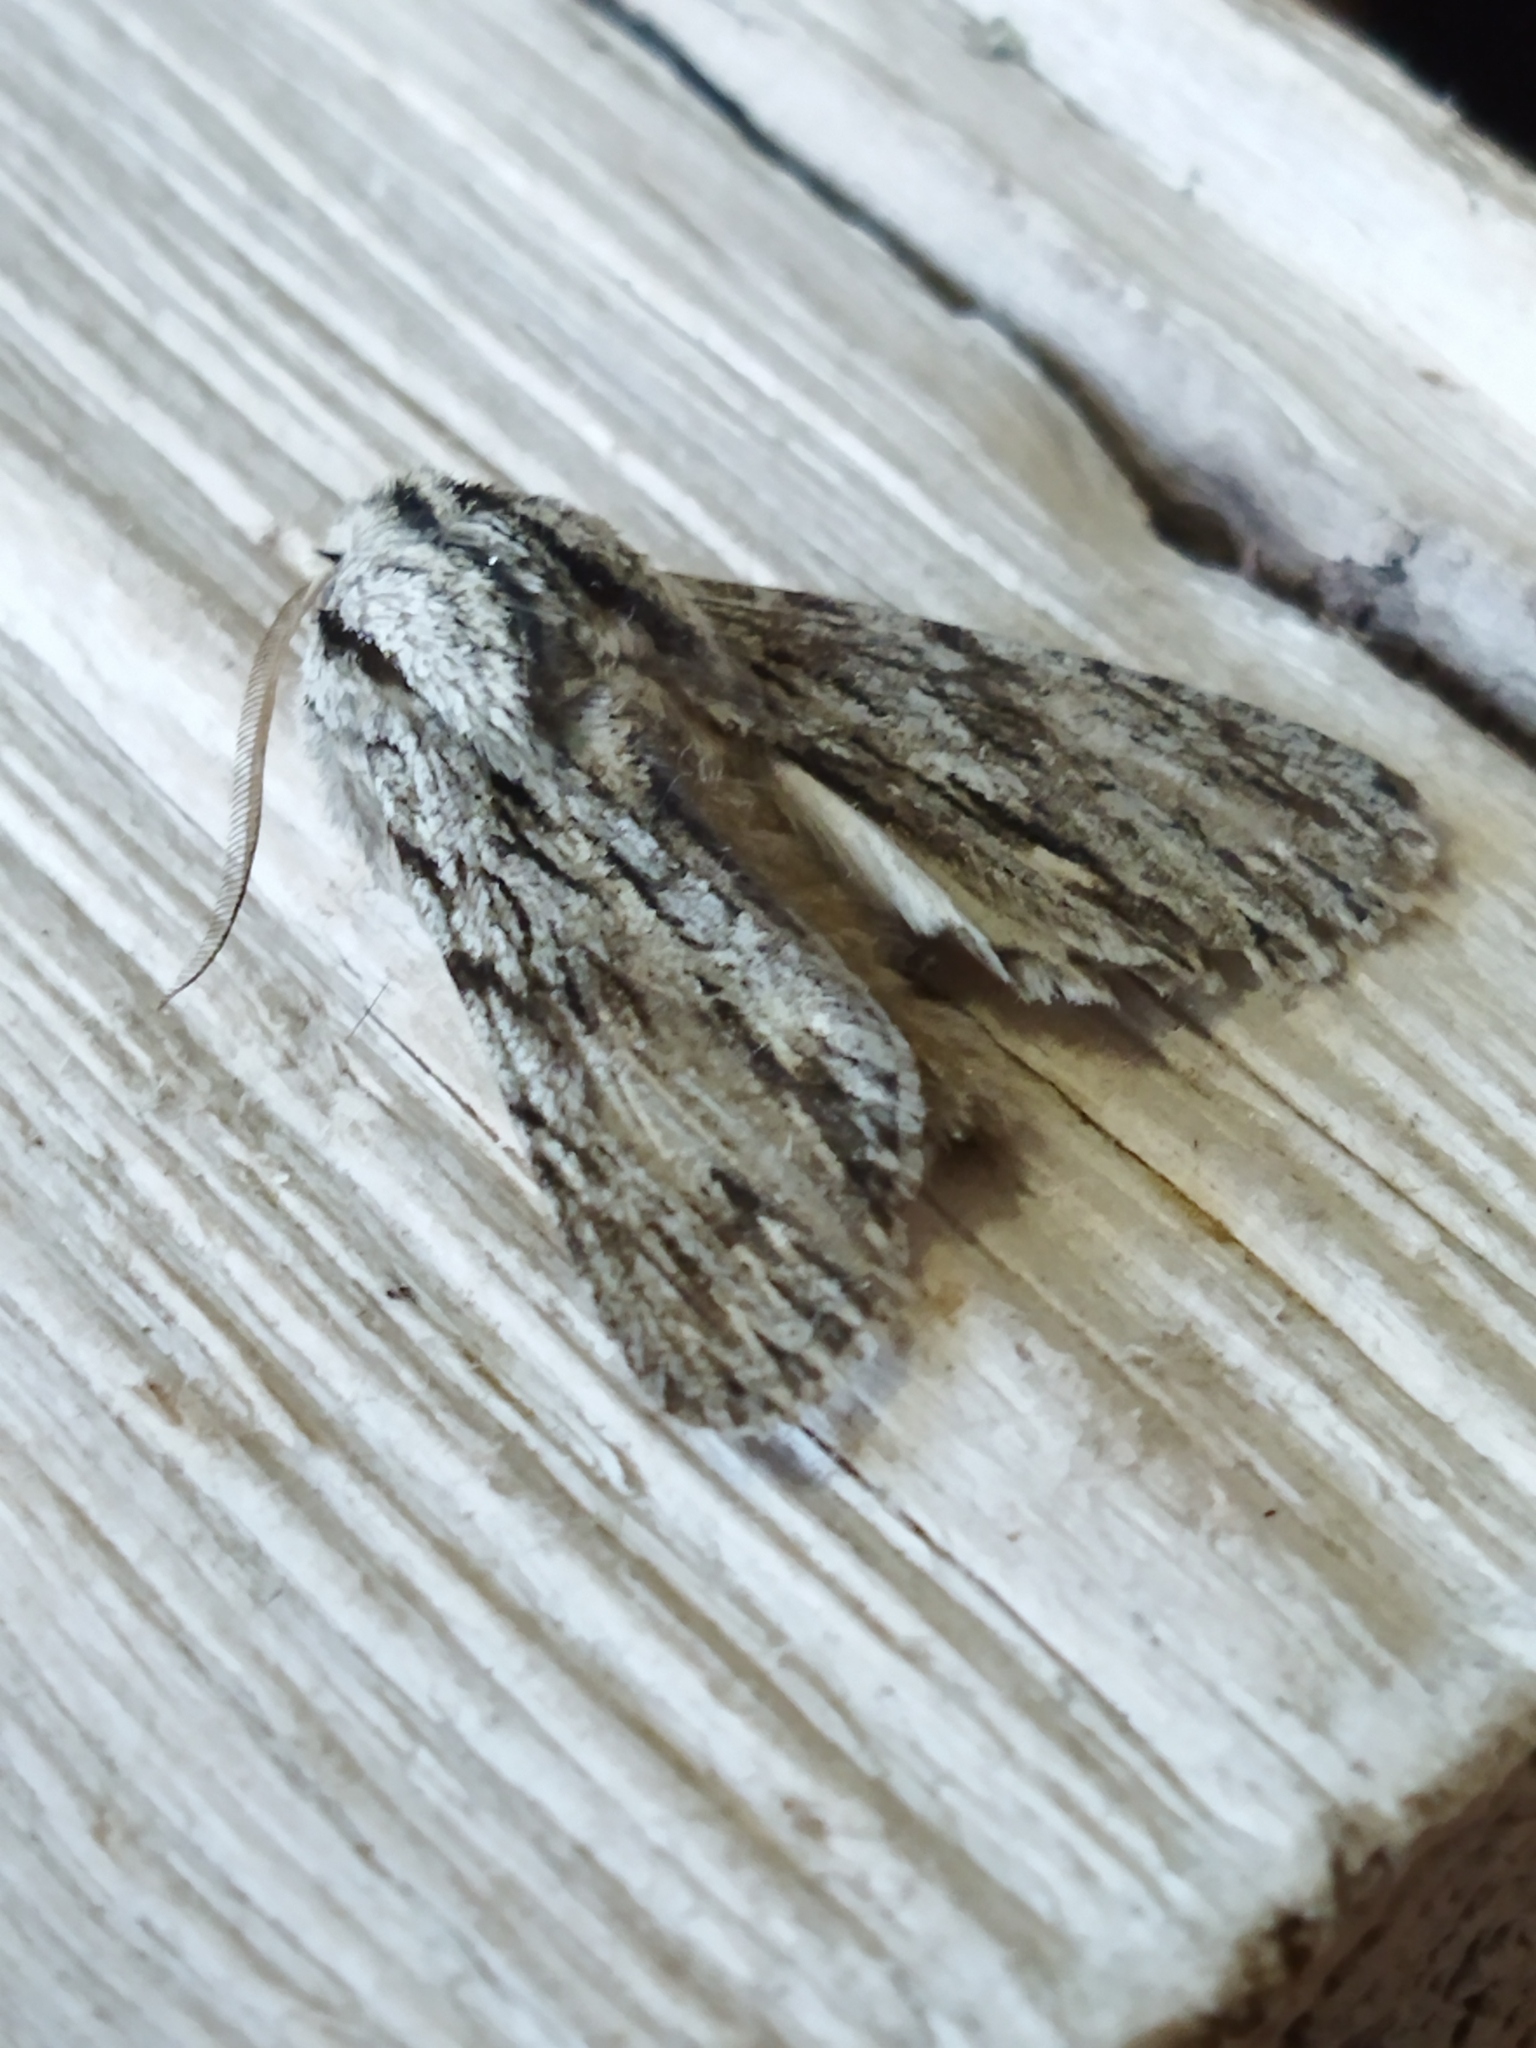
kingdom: Animalia
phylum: Arthropoda
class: Insecta
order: Lepidoptera
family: Noctuidae
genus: Asteroscopus
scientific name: Asteroscopus sphinx
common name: The sprawler
